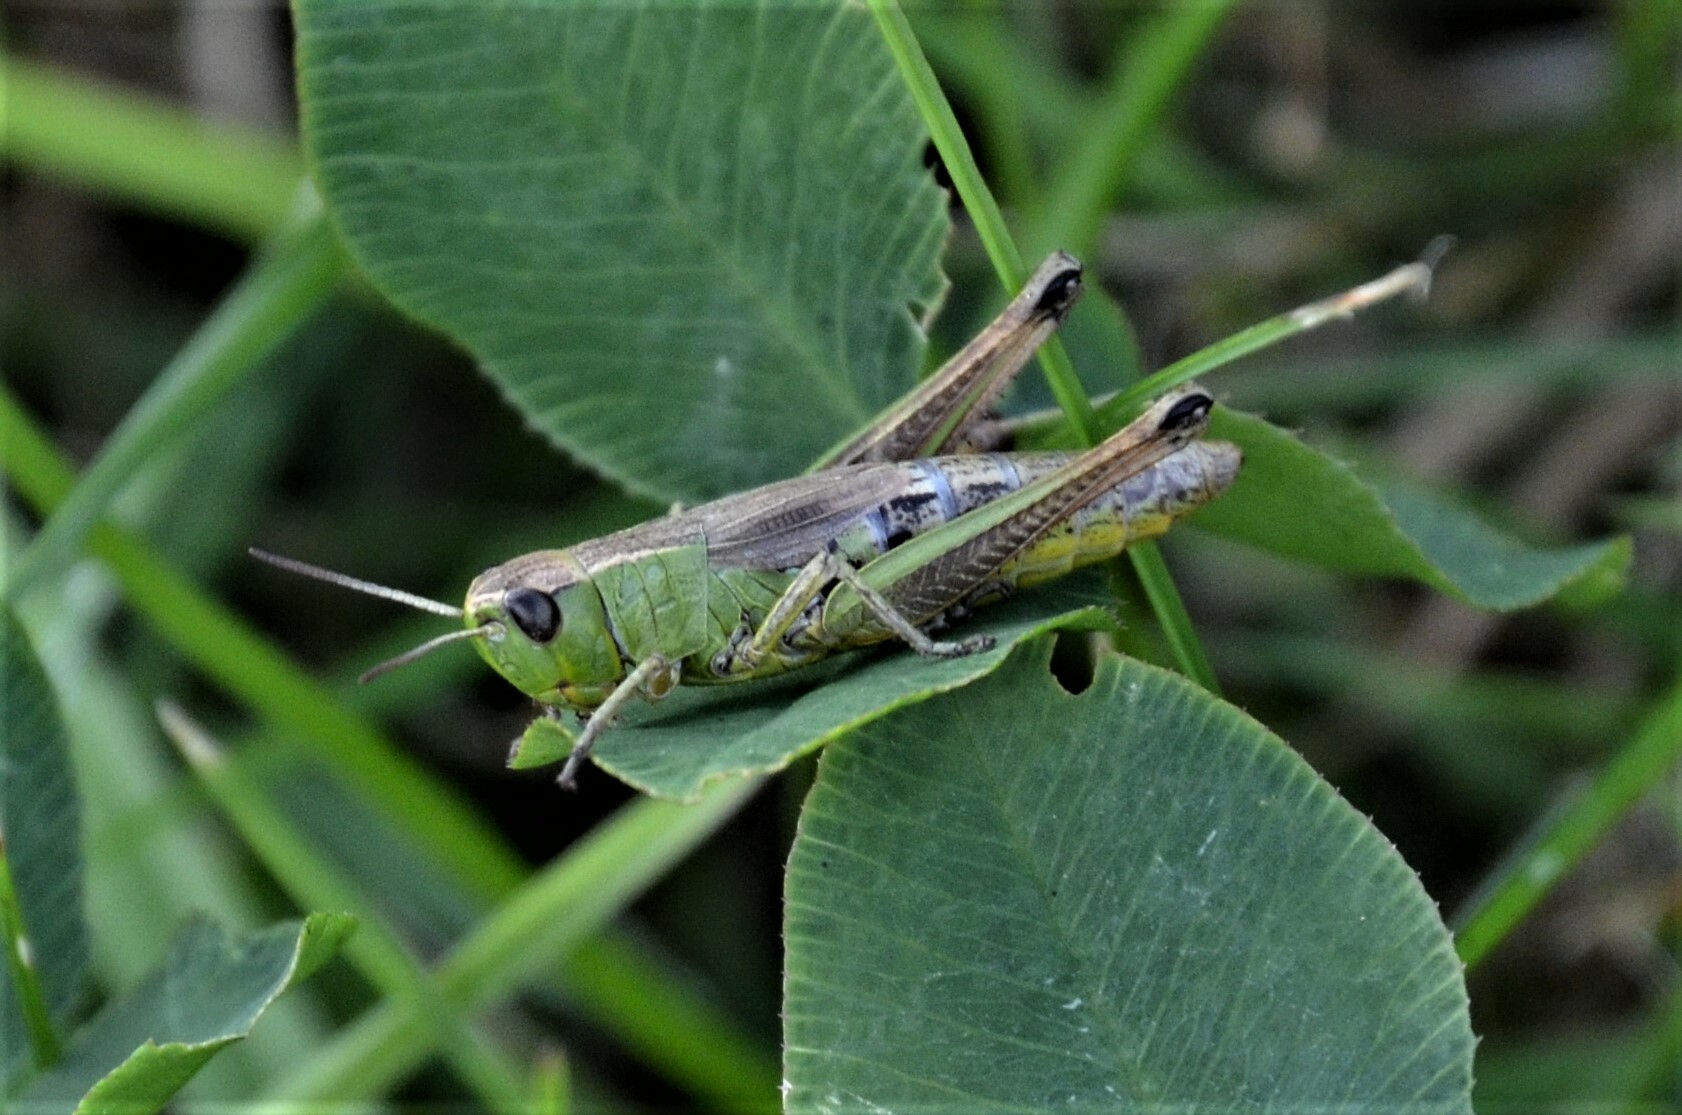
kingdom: Animalia
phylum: Arthropoda
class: Insecta
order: Orthoptera
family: Acrididae
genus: Pseudochorthippus
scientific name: Pseudochorthippus parallelus
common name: Meadow grasshopper
